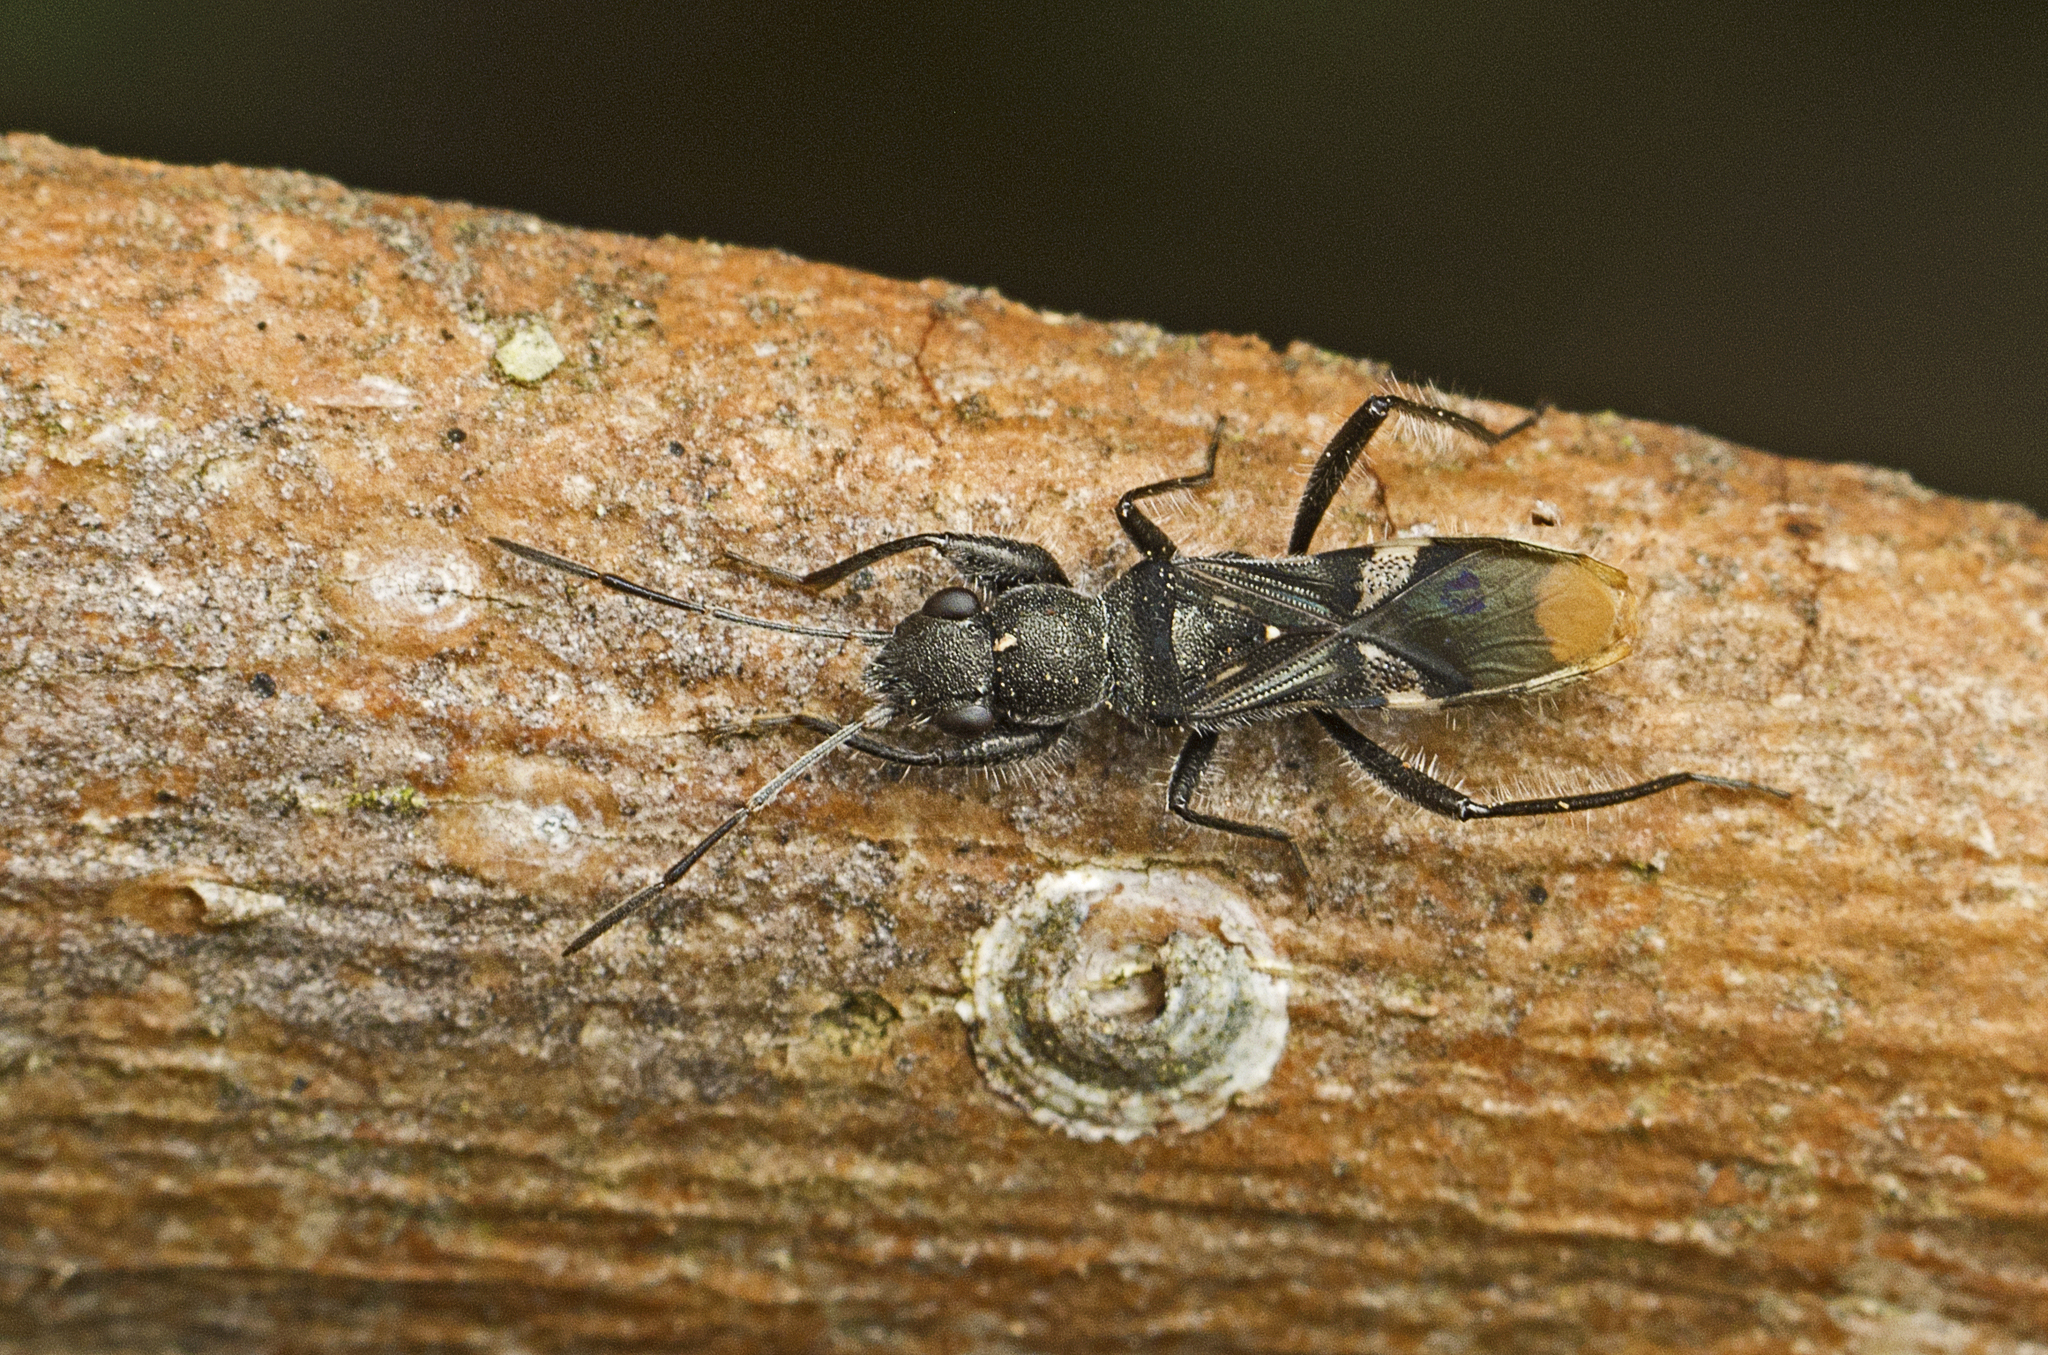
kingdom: Animalia
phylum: Arthropoda
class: Insecta
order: Hemiptera
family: Rhyparochromidae
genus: Daerlac
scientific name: Daerlac apicalis
